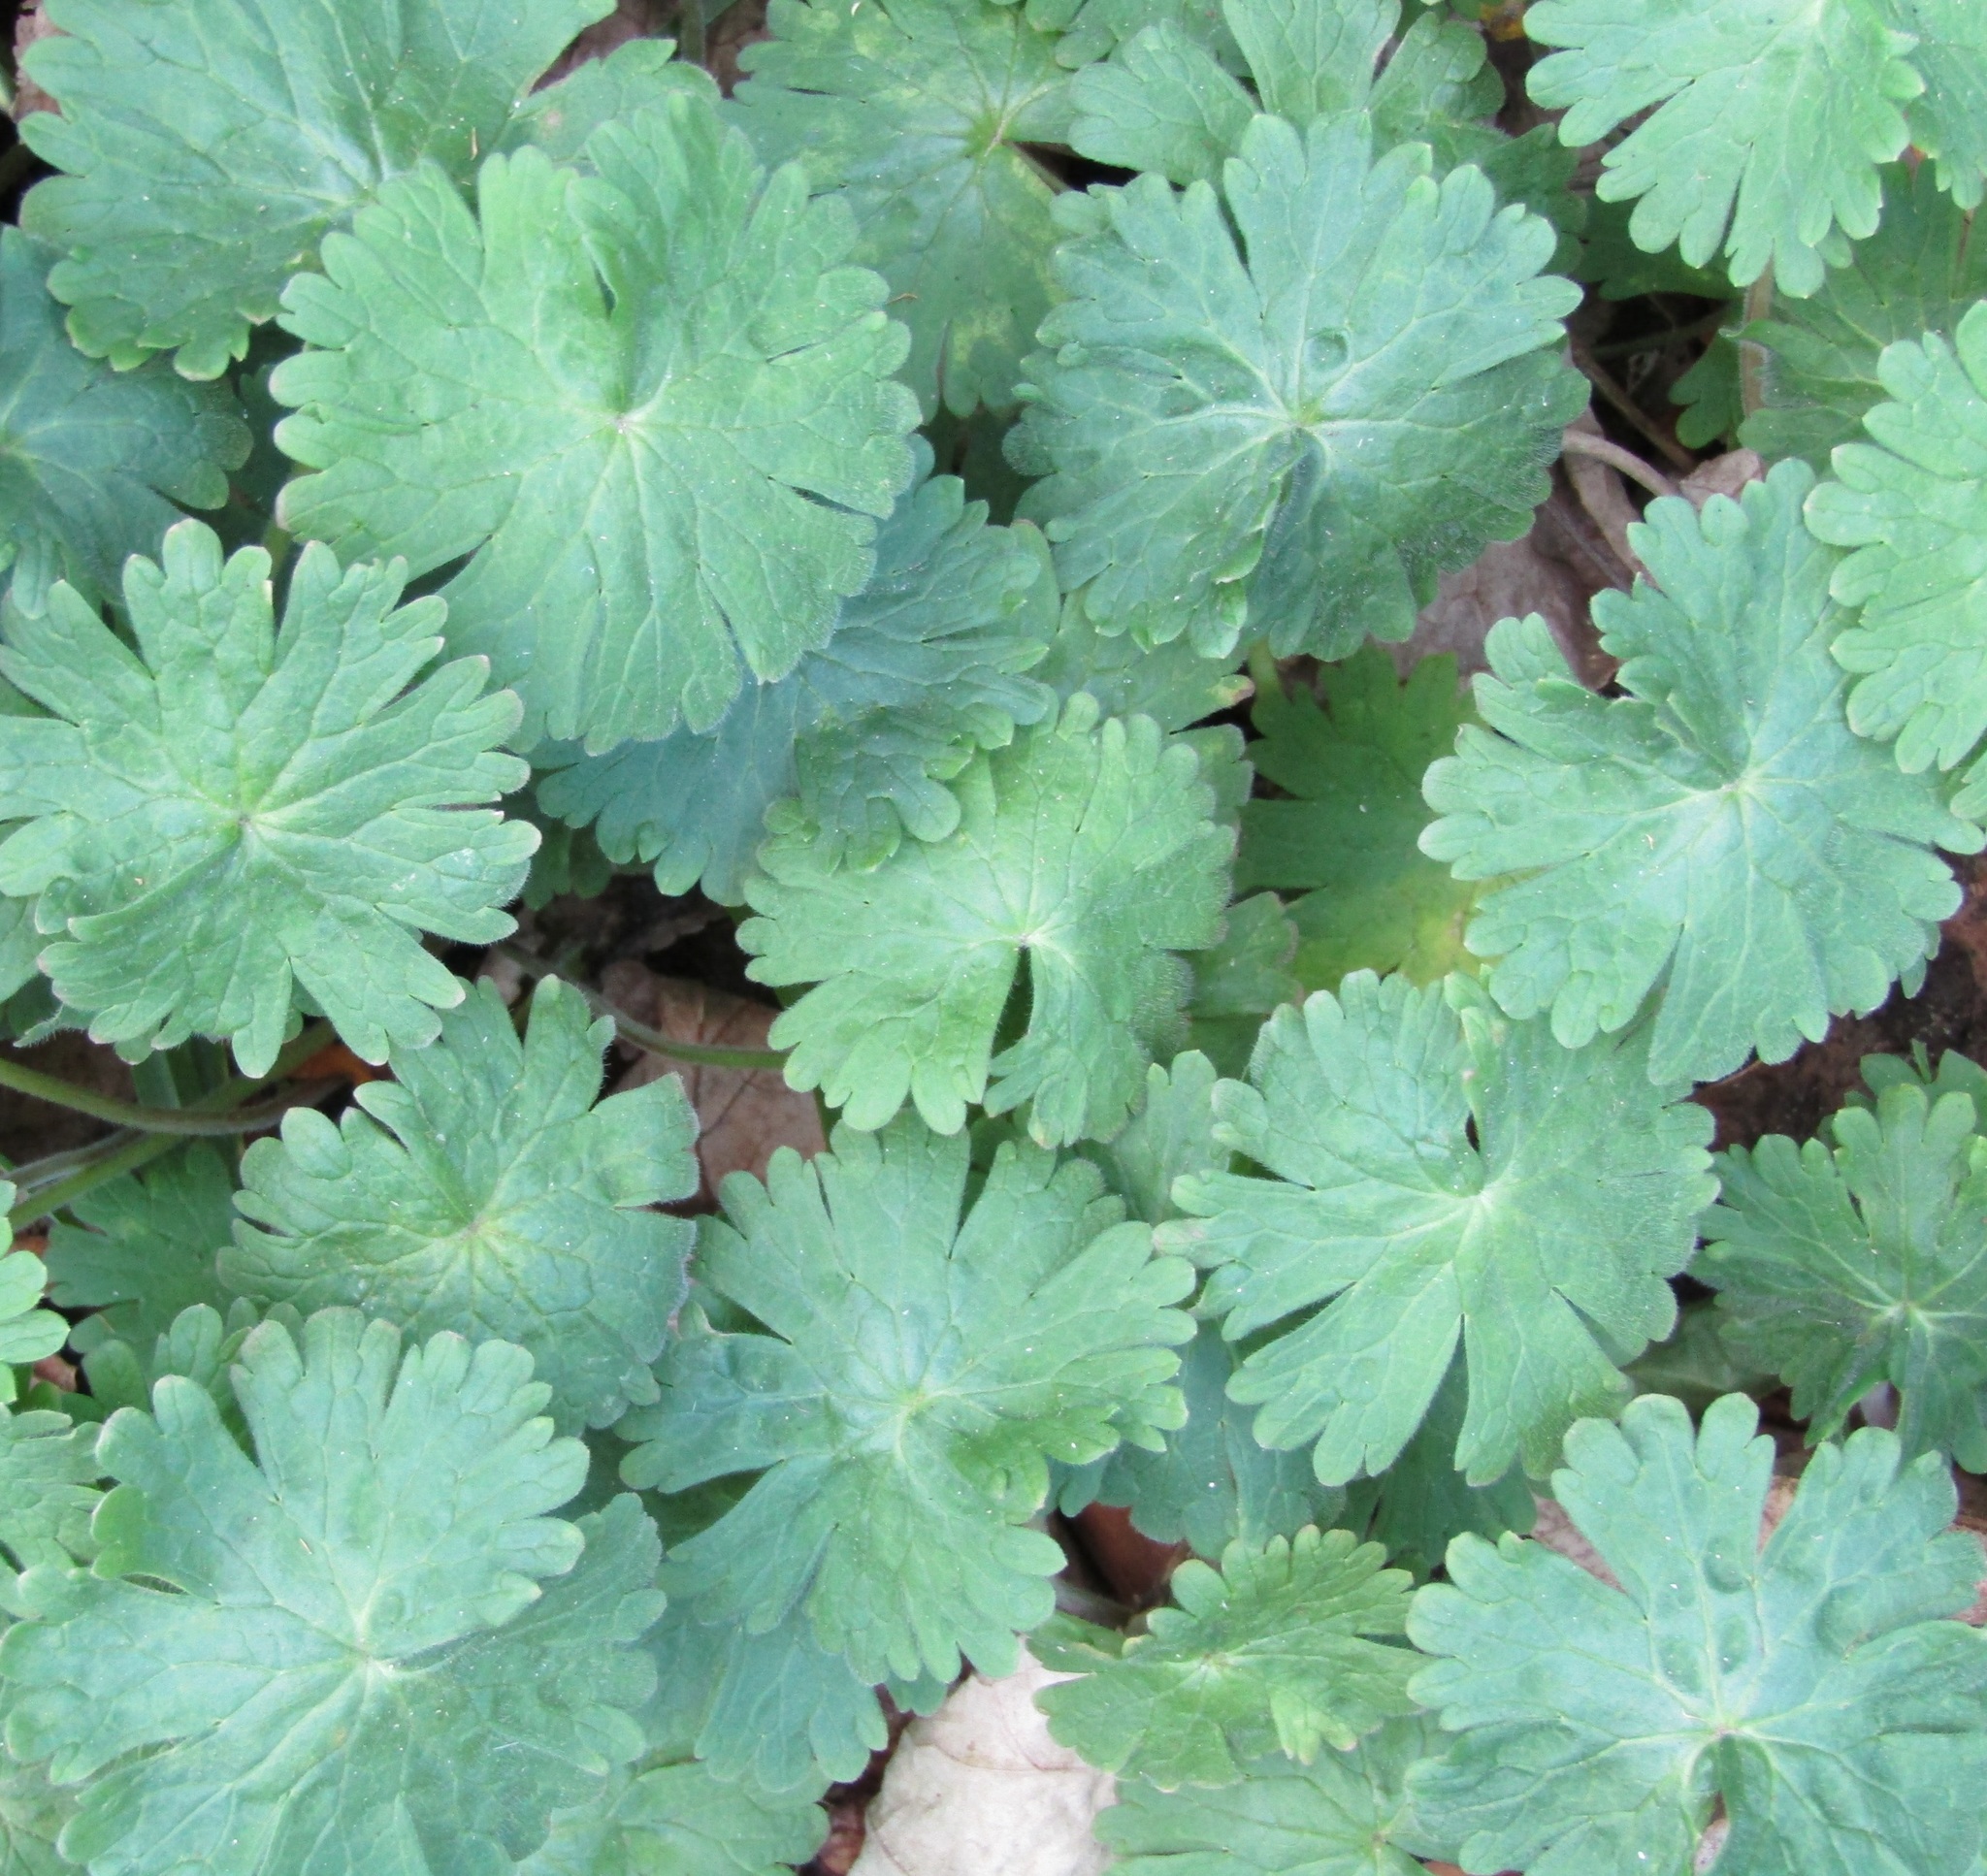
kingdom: Plantae
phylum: Tracheophyta
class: Magnoliopsida
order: Geraniales
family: Geraniaceae
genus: Geranium
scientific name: Geranium molle
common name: Dove's-foot crane's-bill
